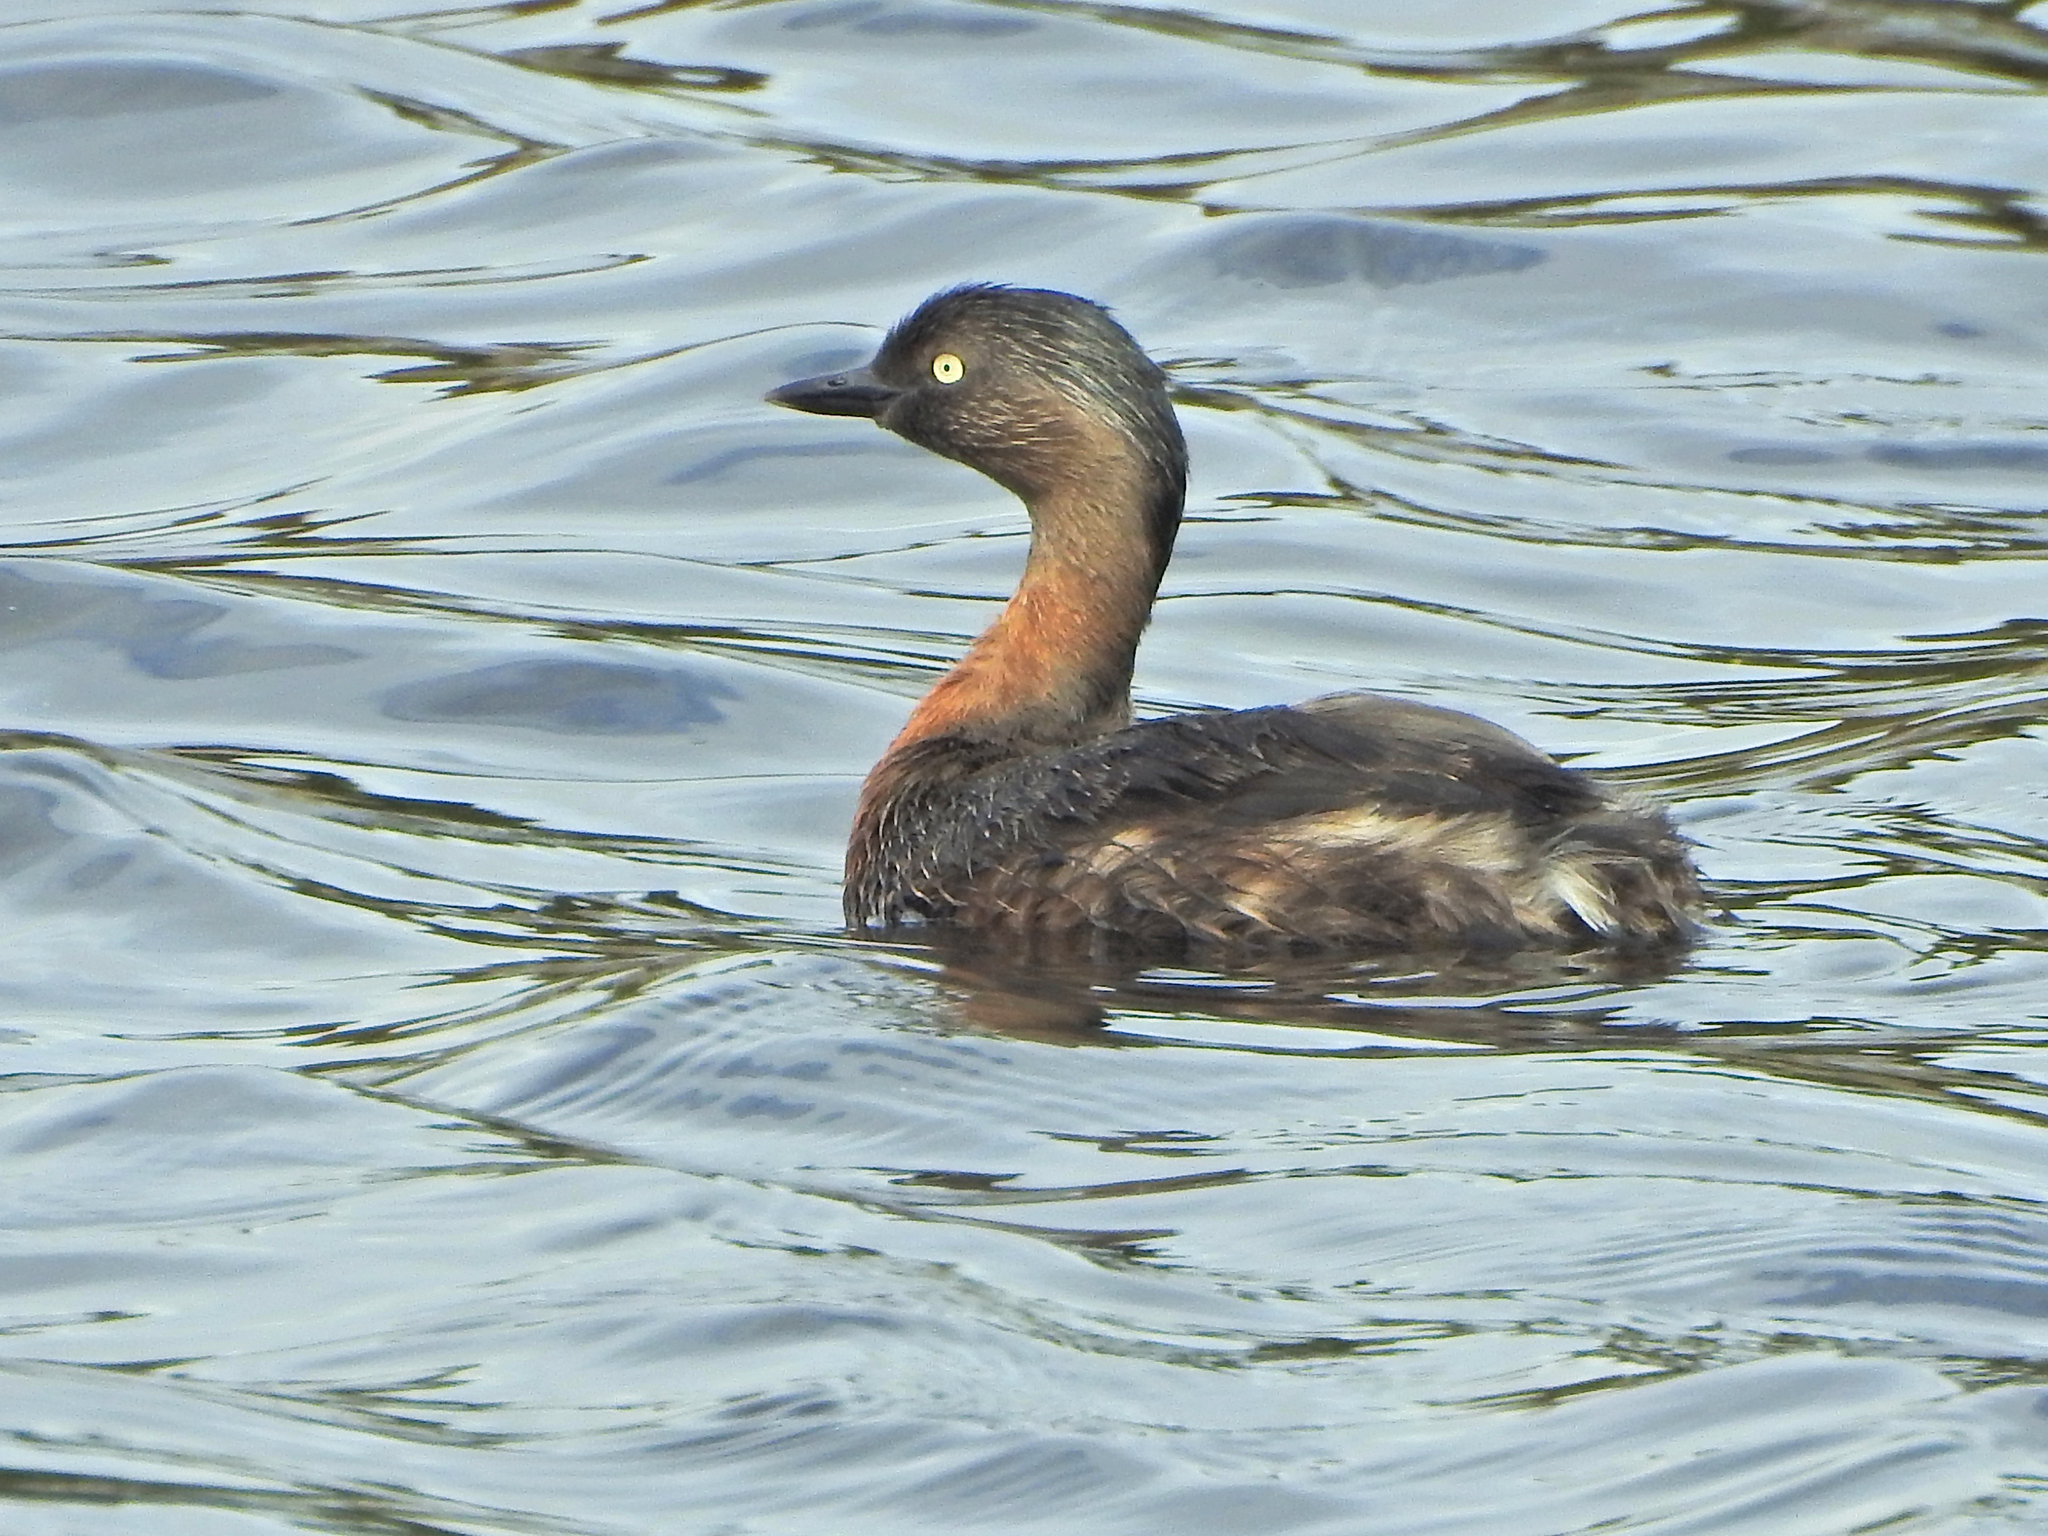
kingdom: Animalia
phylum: Chordata
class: Aves
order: Podicipediformes
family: Podicipedidae
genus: Poliocephalus
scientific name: Poliocephalus rufopectus
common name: New zealand grebe
